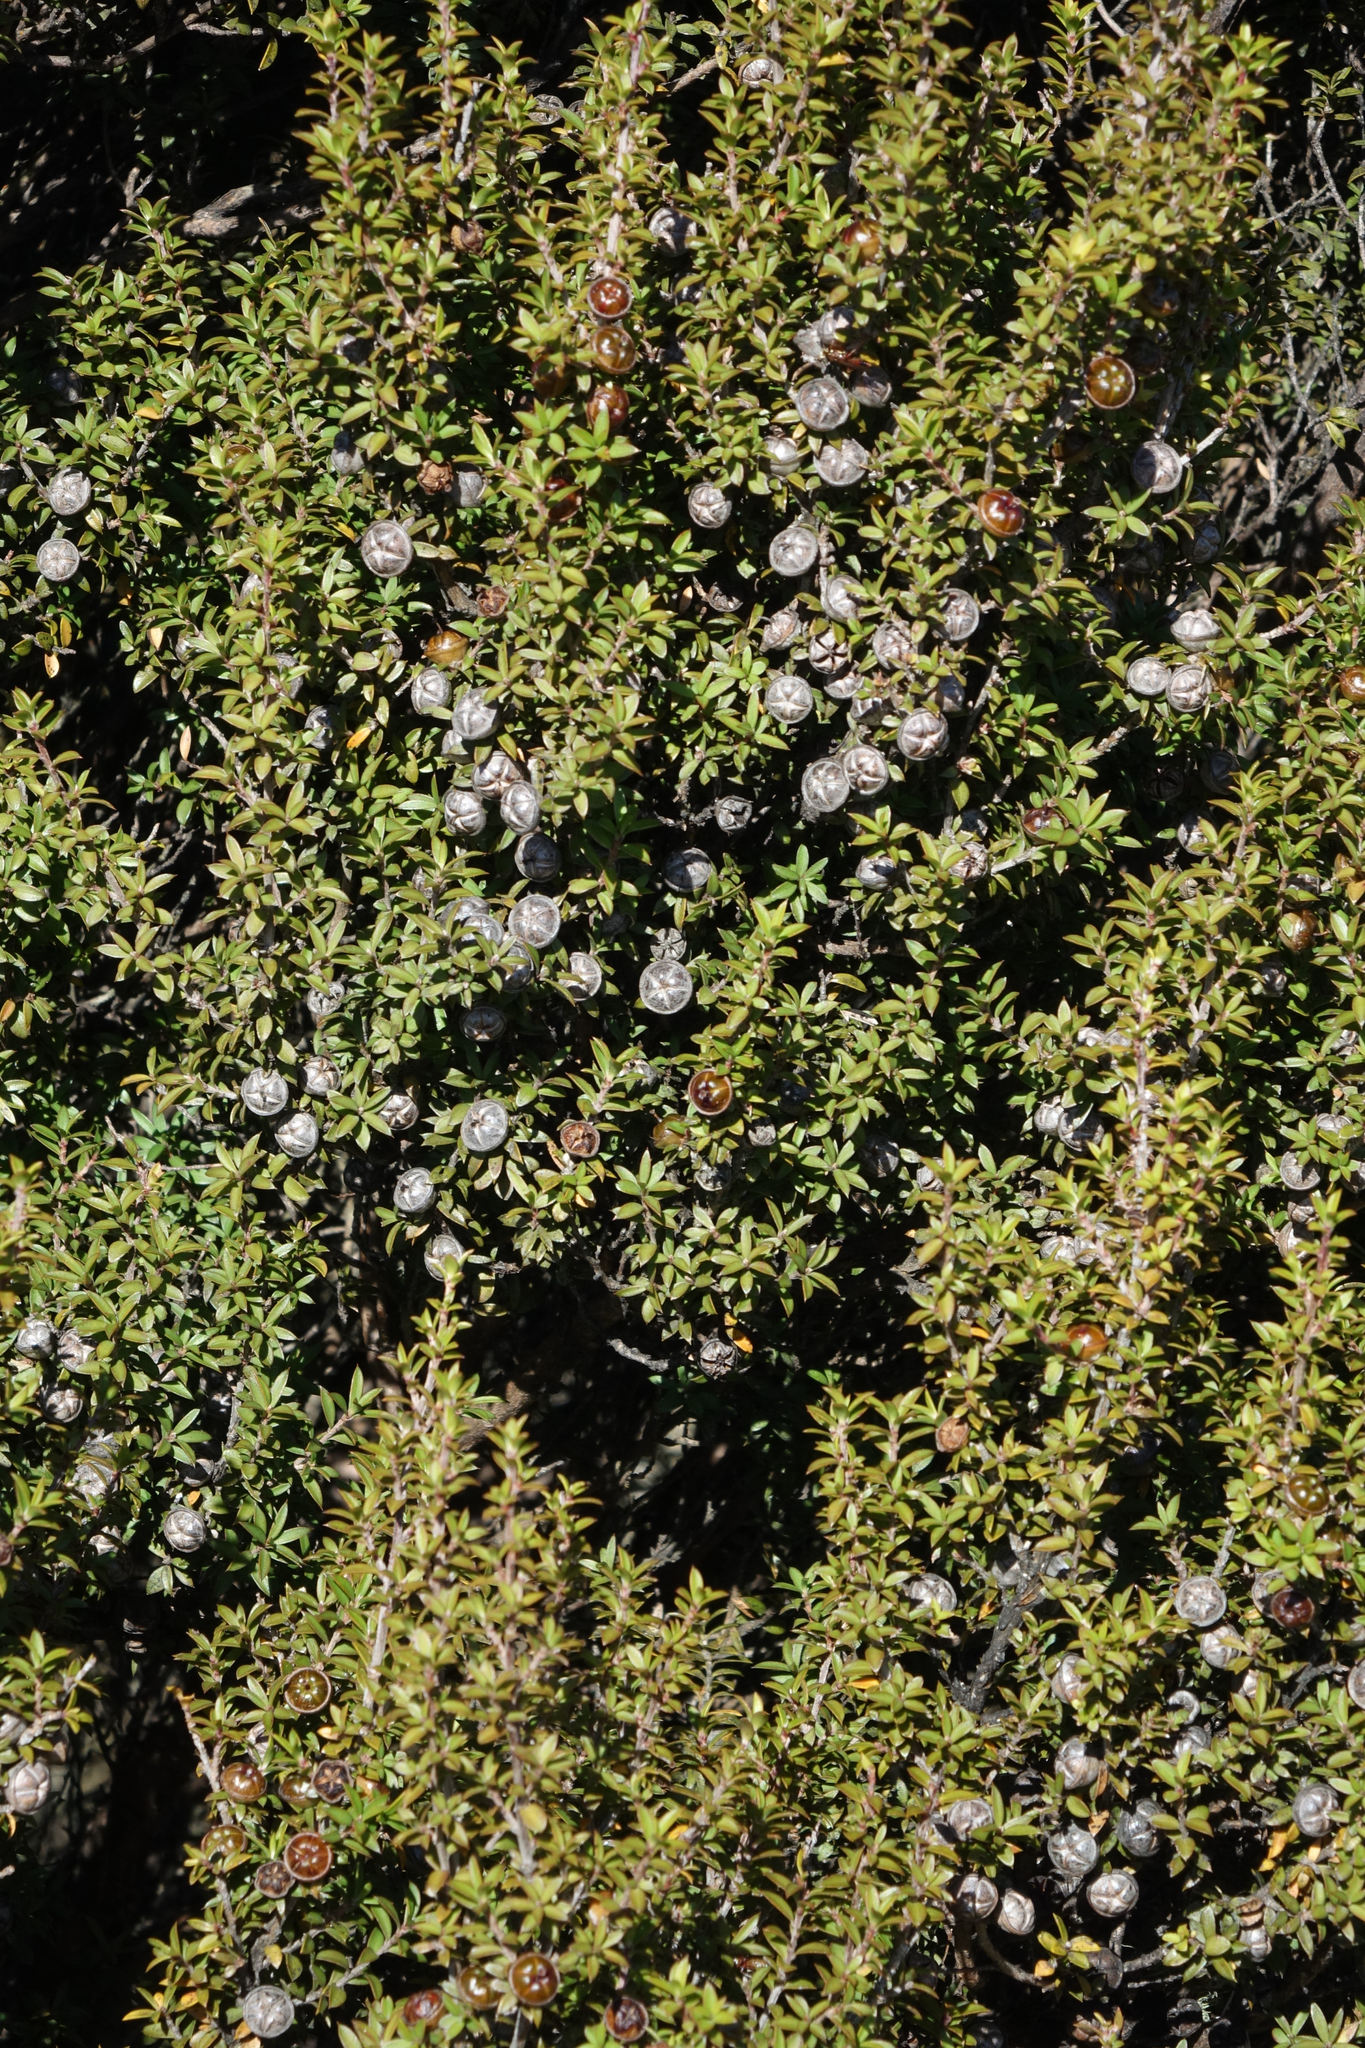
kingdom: Plantae
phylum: Tracheophyta
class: Magnoliopsida
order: Myrtales
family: Myrtaceae
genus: Leptospermum
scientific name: Leptospermum scoparium
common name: Broom tea-tree
